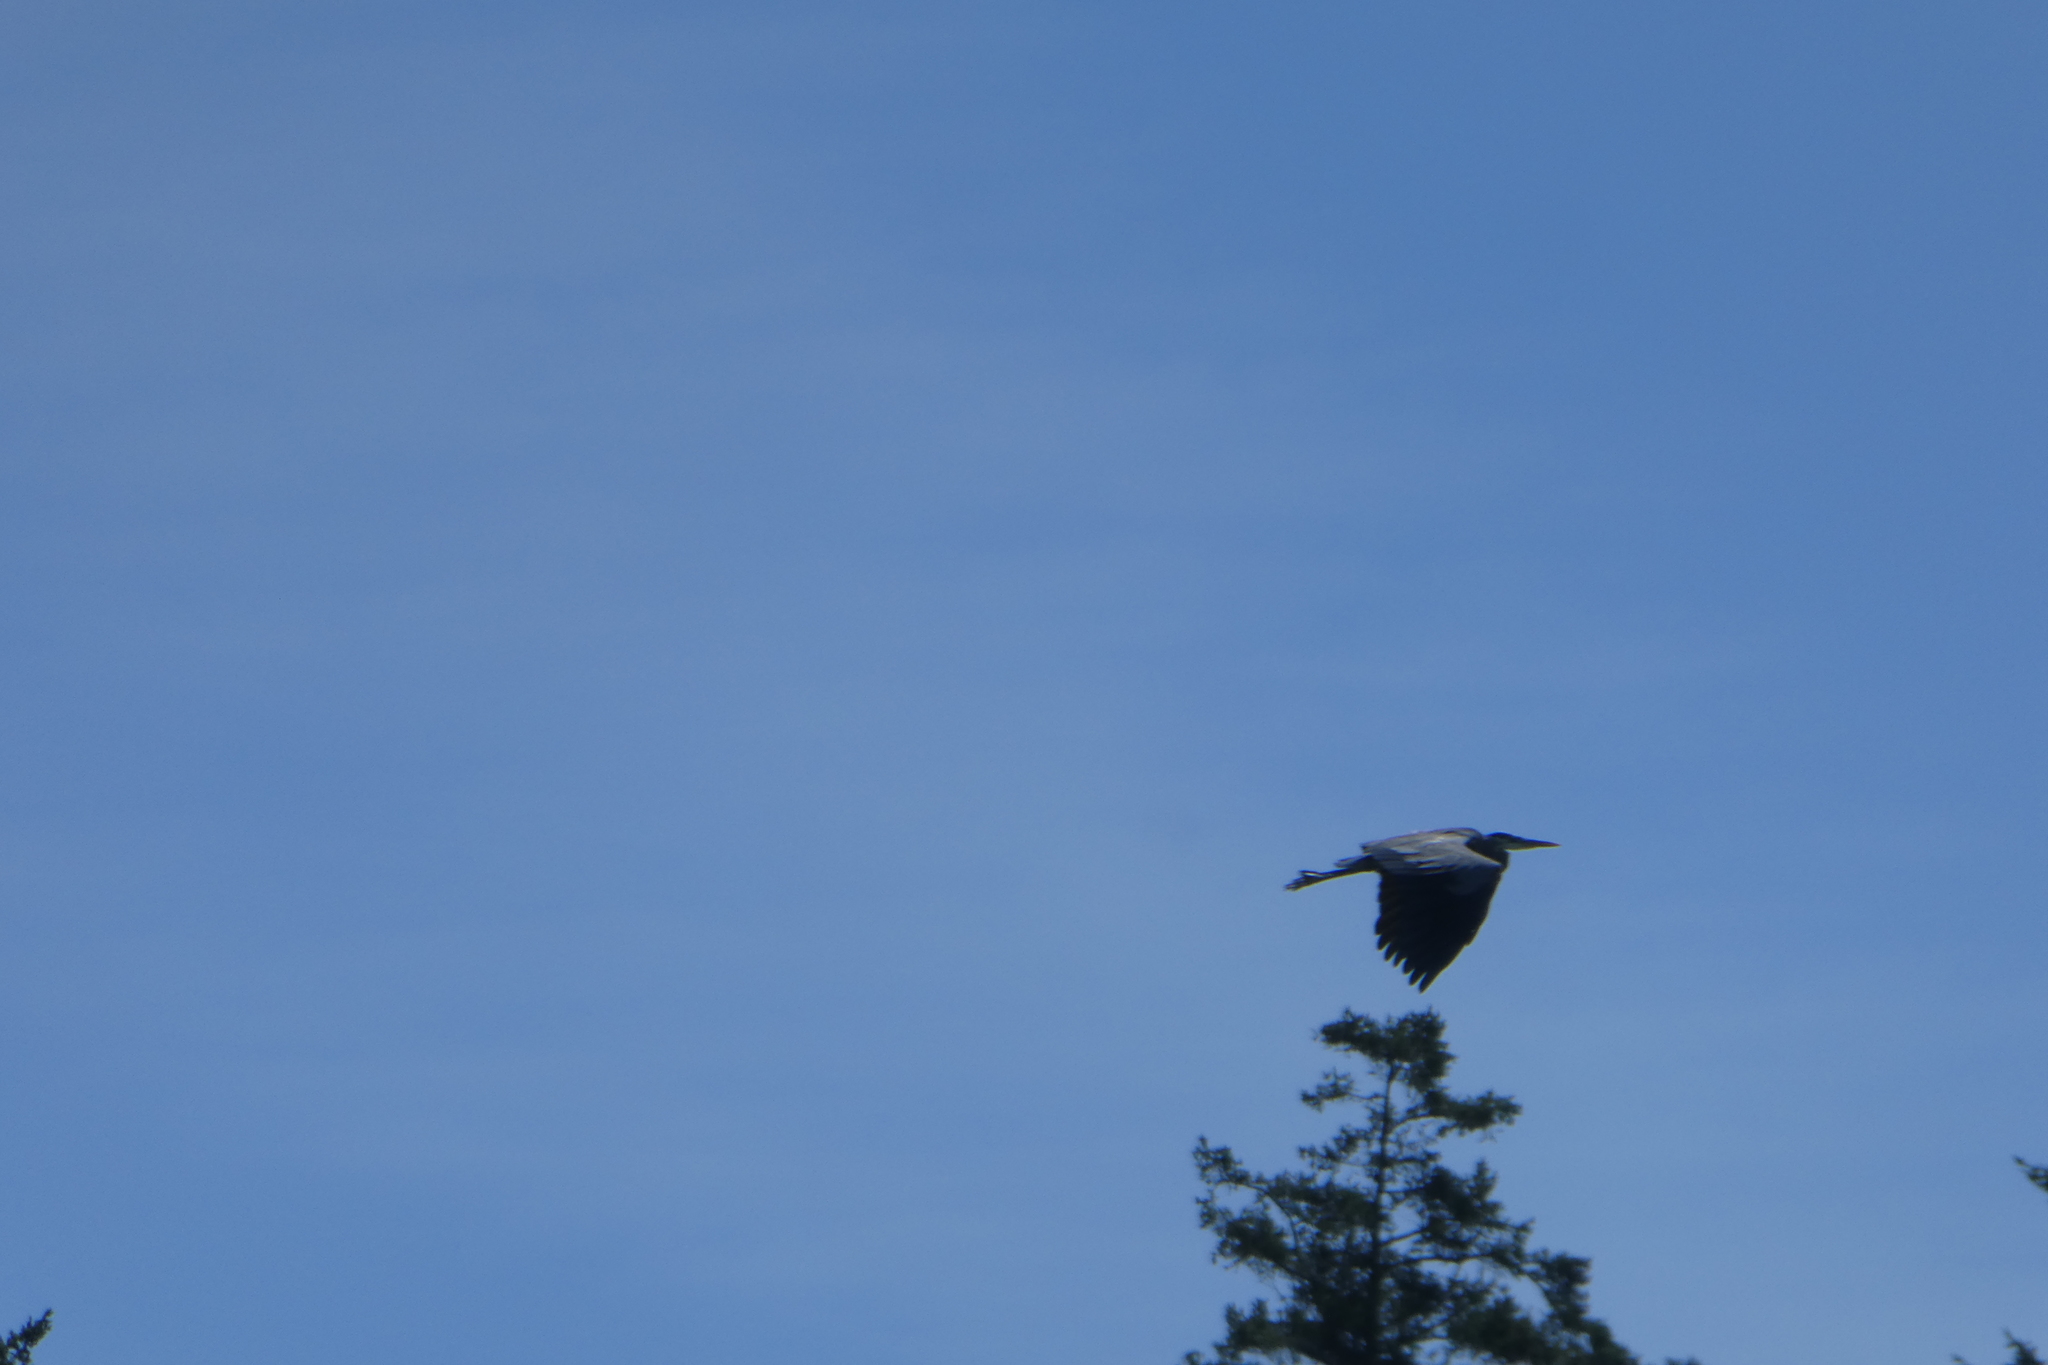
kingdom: Animalia
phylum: Chordata
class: Aves
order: Pelecaniformes
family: Ardeidae
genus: Ardea
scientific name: Ardea herodias
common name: Great blue heron
